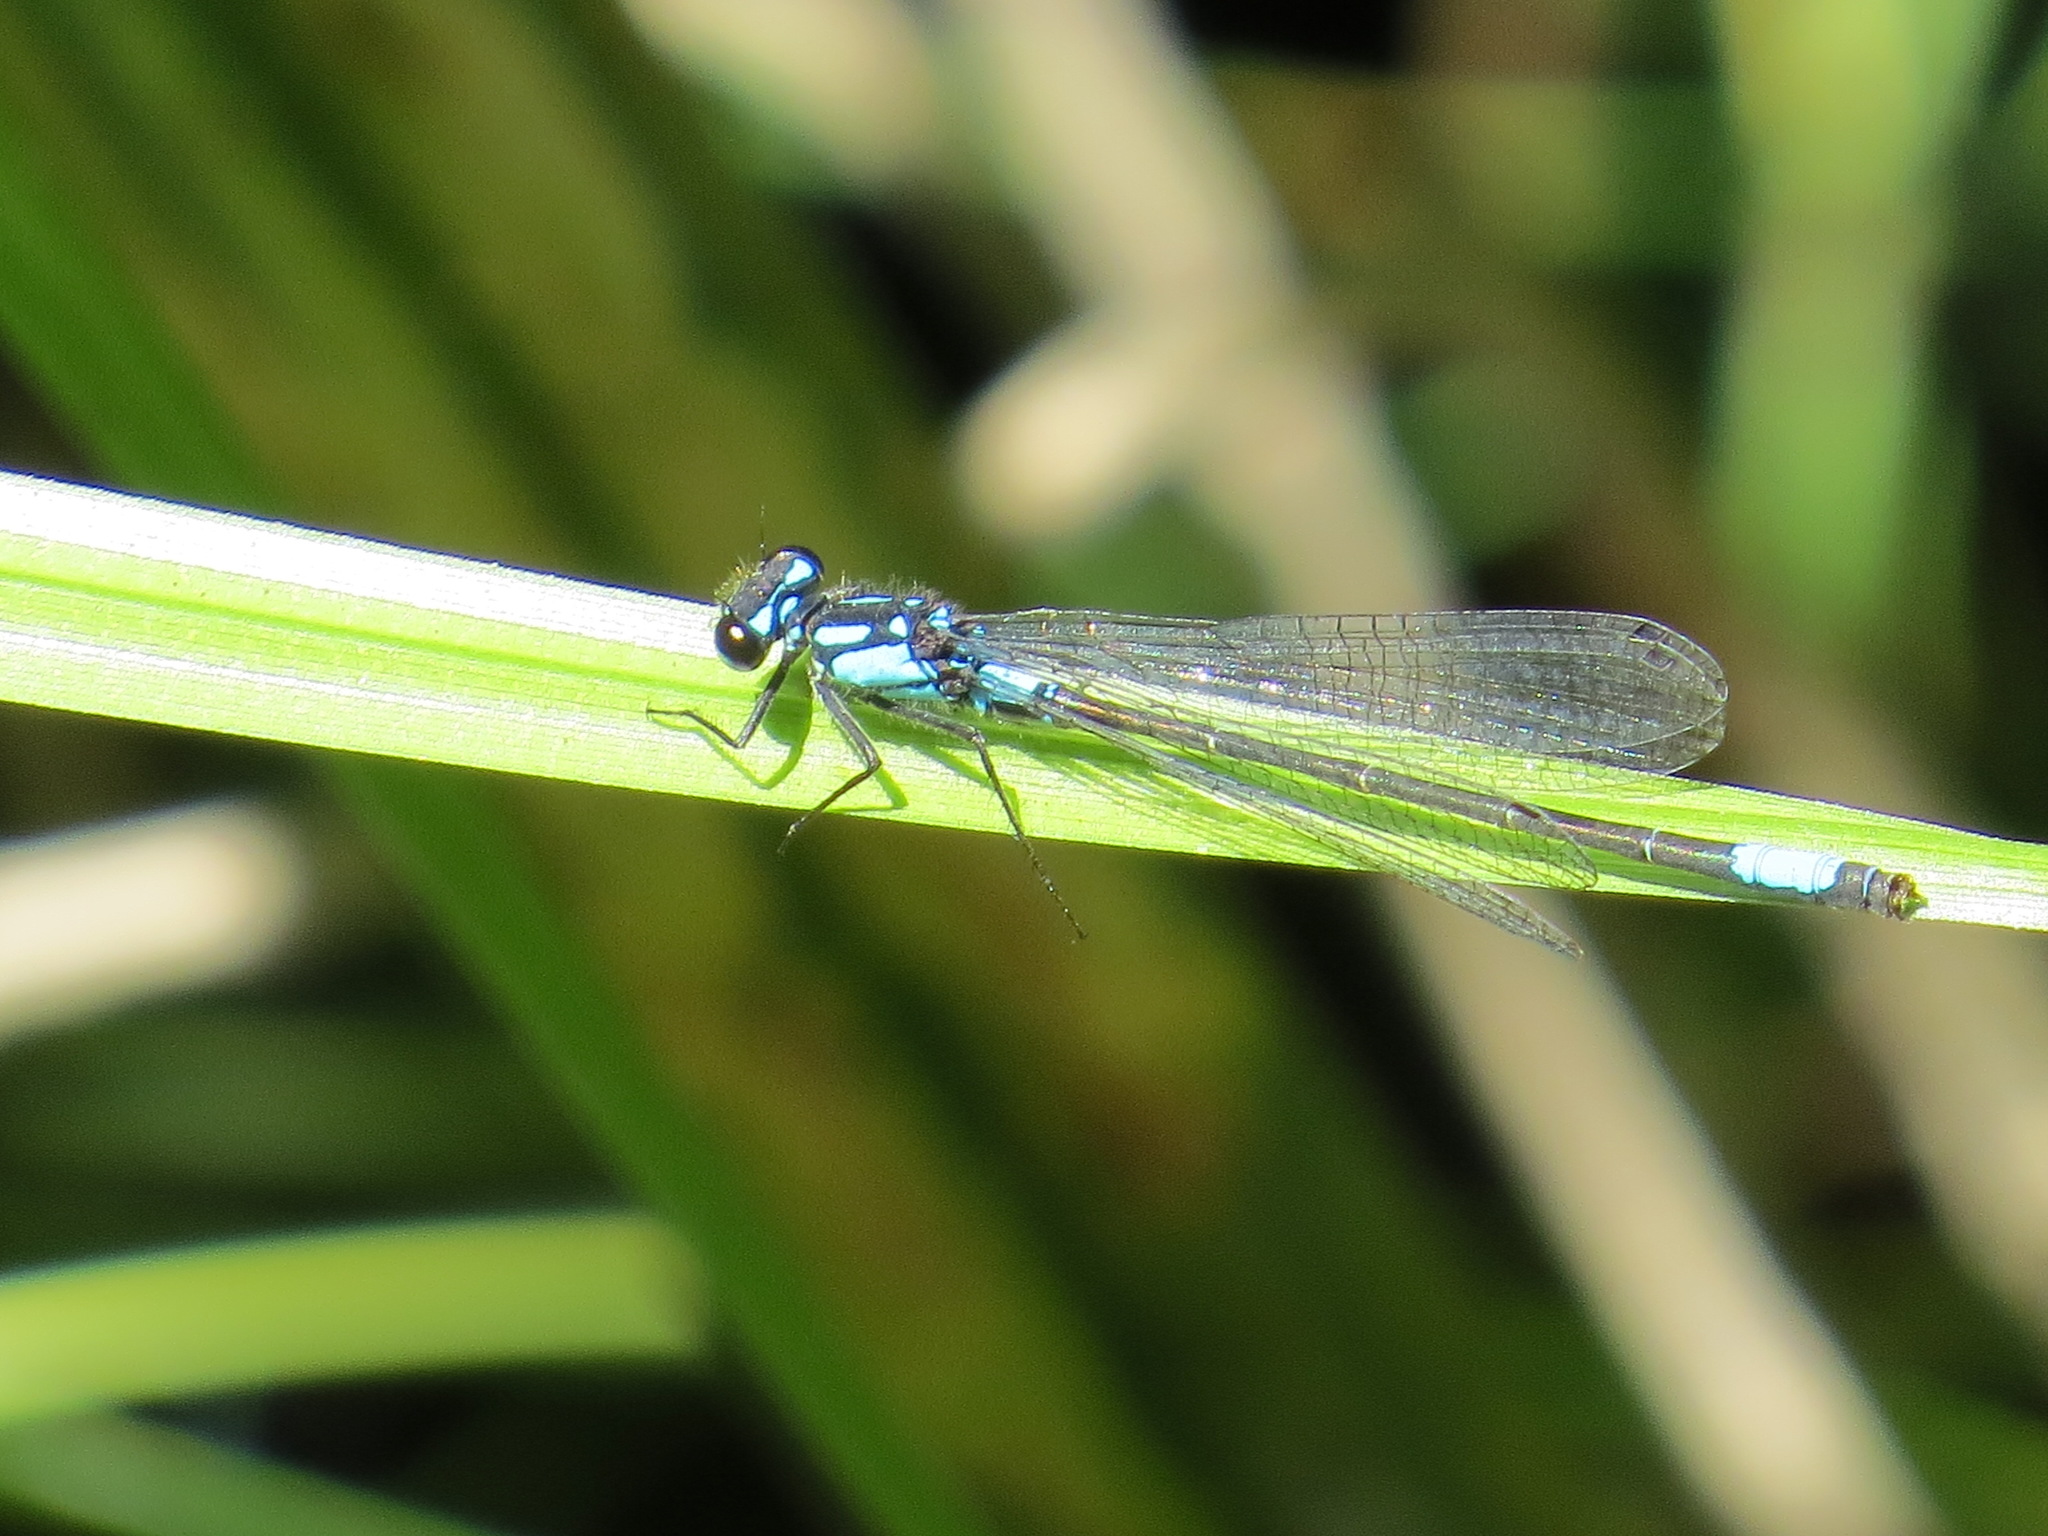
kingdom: Animalia
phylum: Arthropoda
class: Insecta
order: Odonata
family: Coenagrionidae
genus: Zoniagrion
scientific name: Zoniagrion exclamationis
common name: Exclamation damsel
